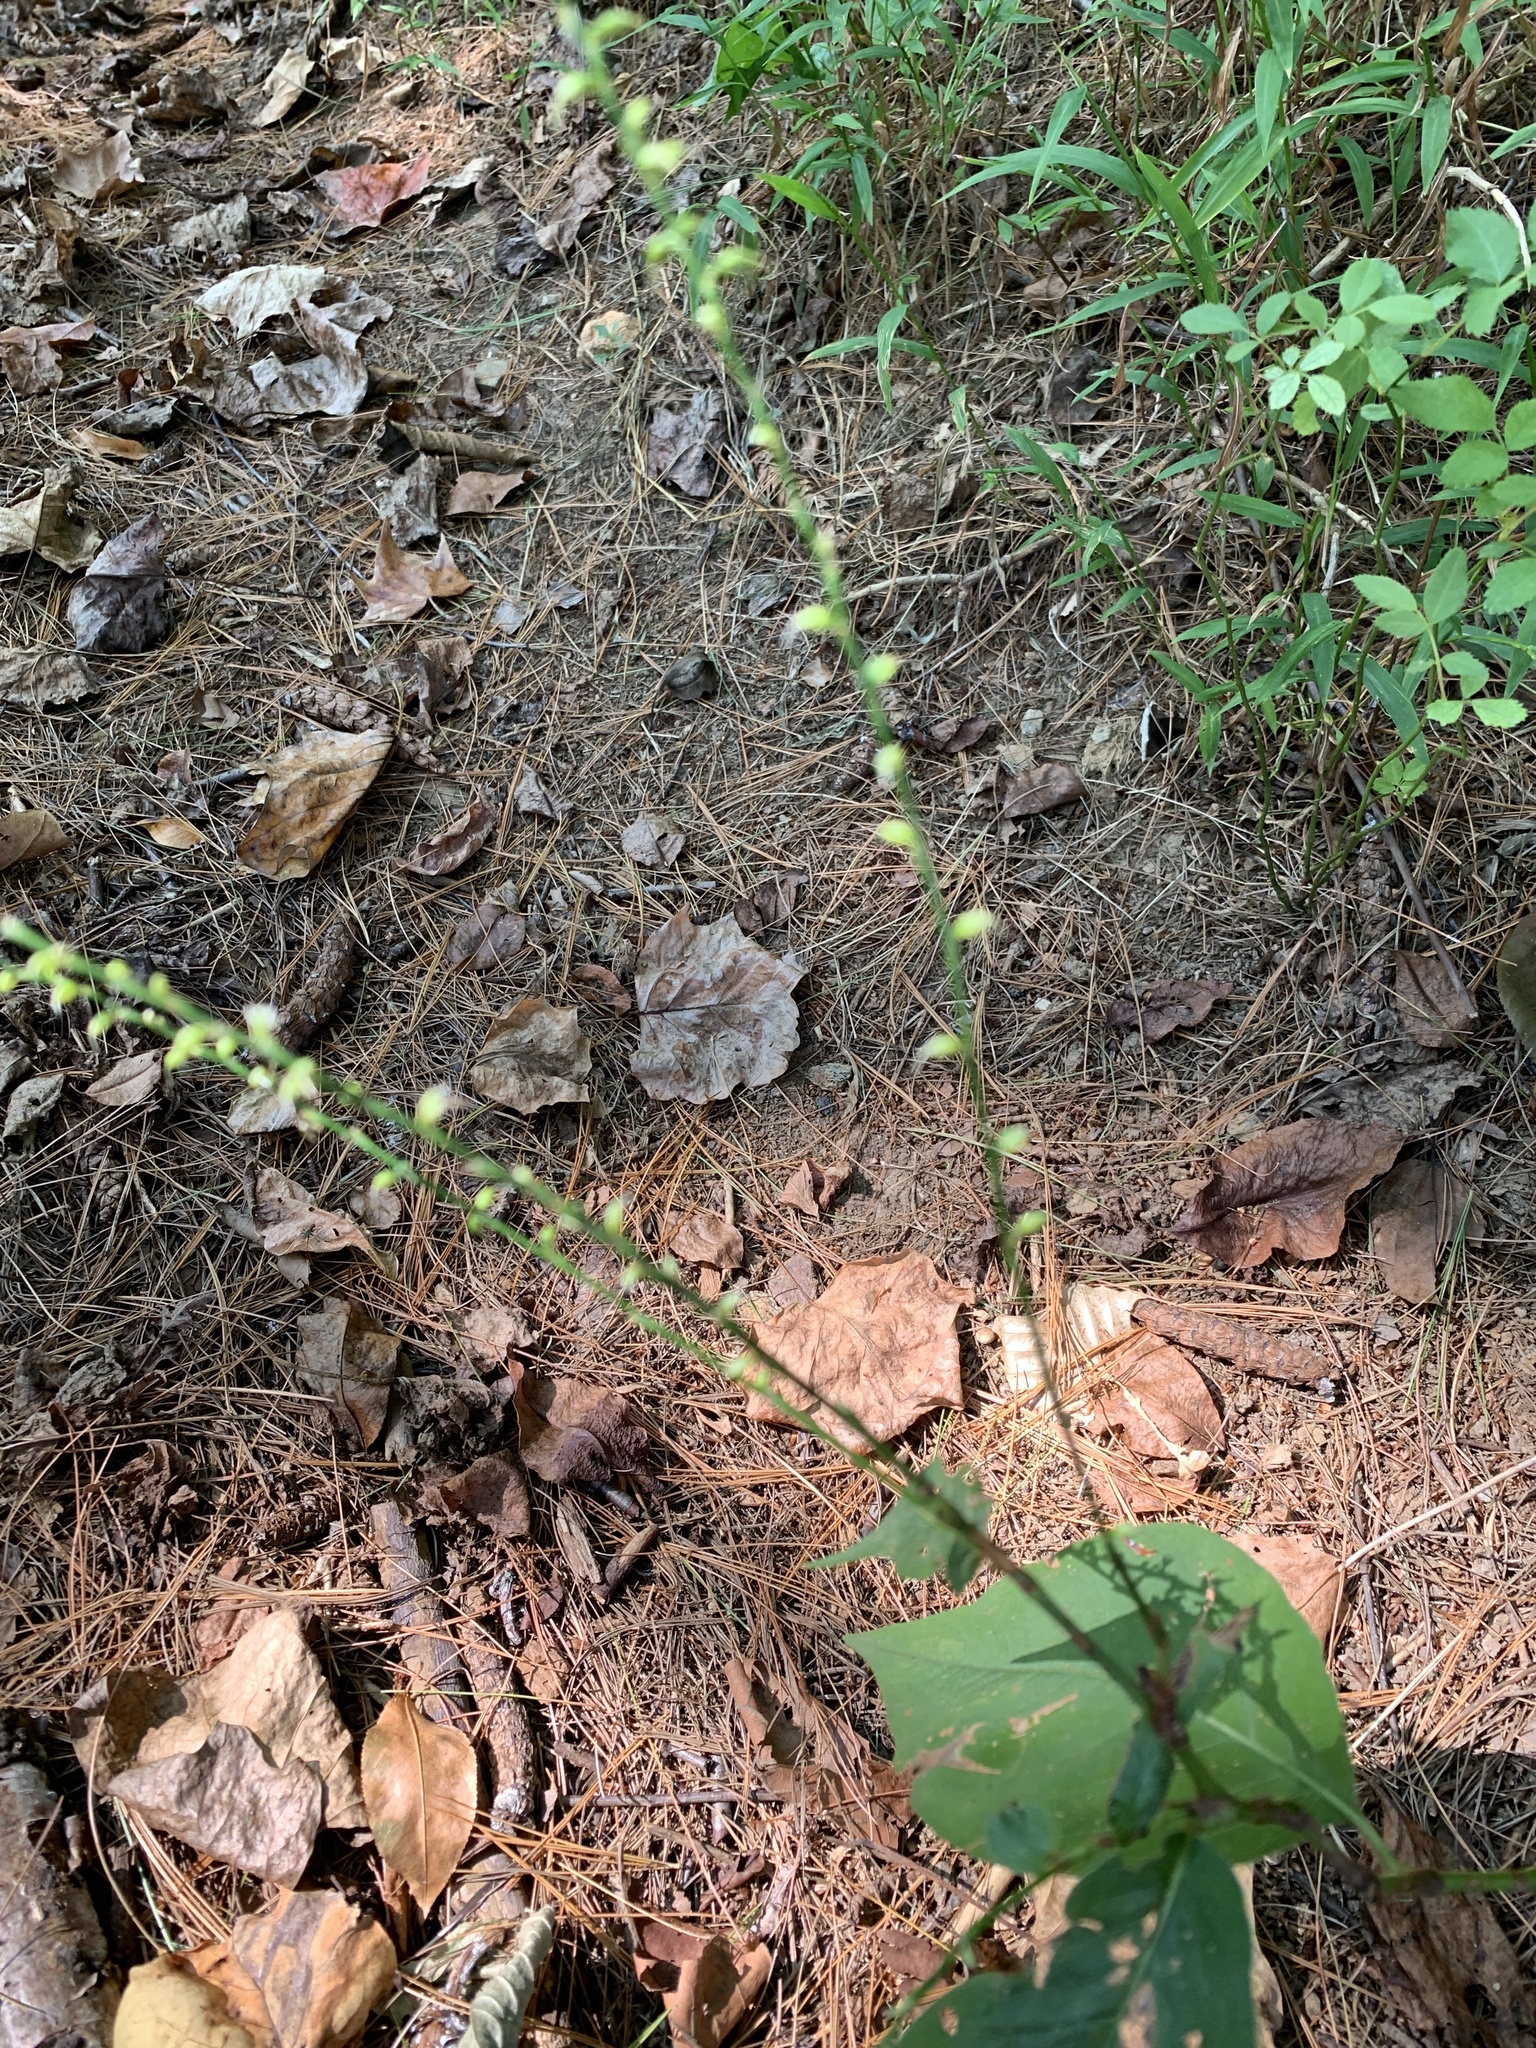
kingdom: Plantae
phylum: Tracheophyta
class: Magnoliopsida
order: Caryophyllales
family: Polygonaceae
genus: Persicaria
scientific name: Persicaria virginiana
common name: Jumpseed
